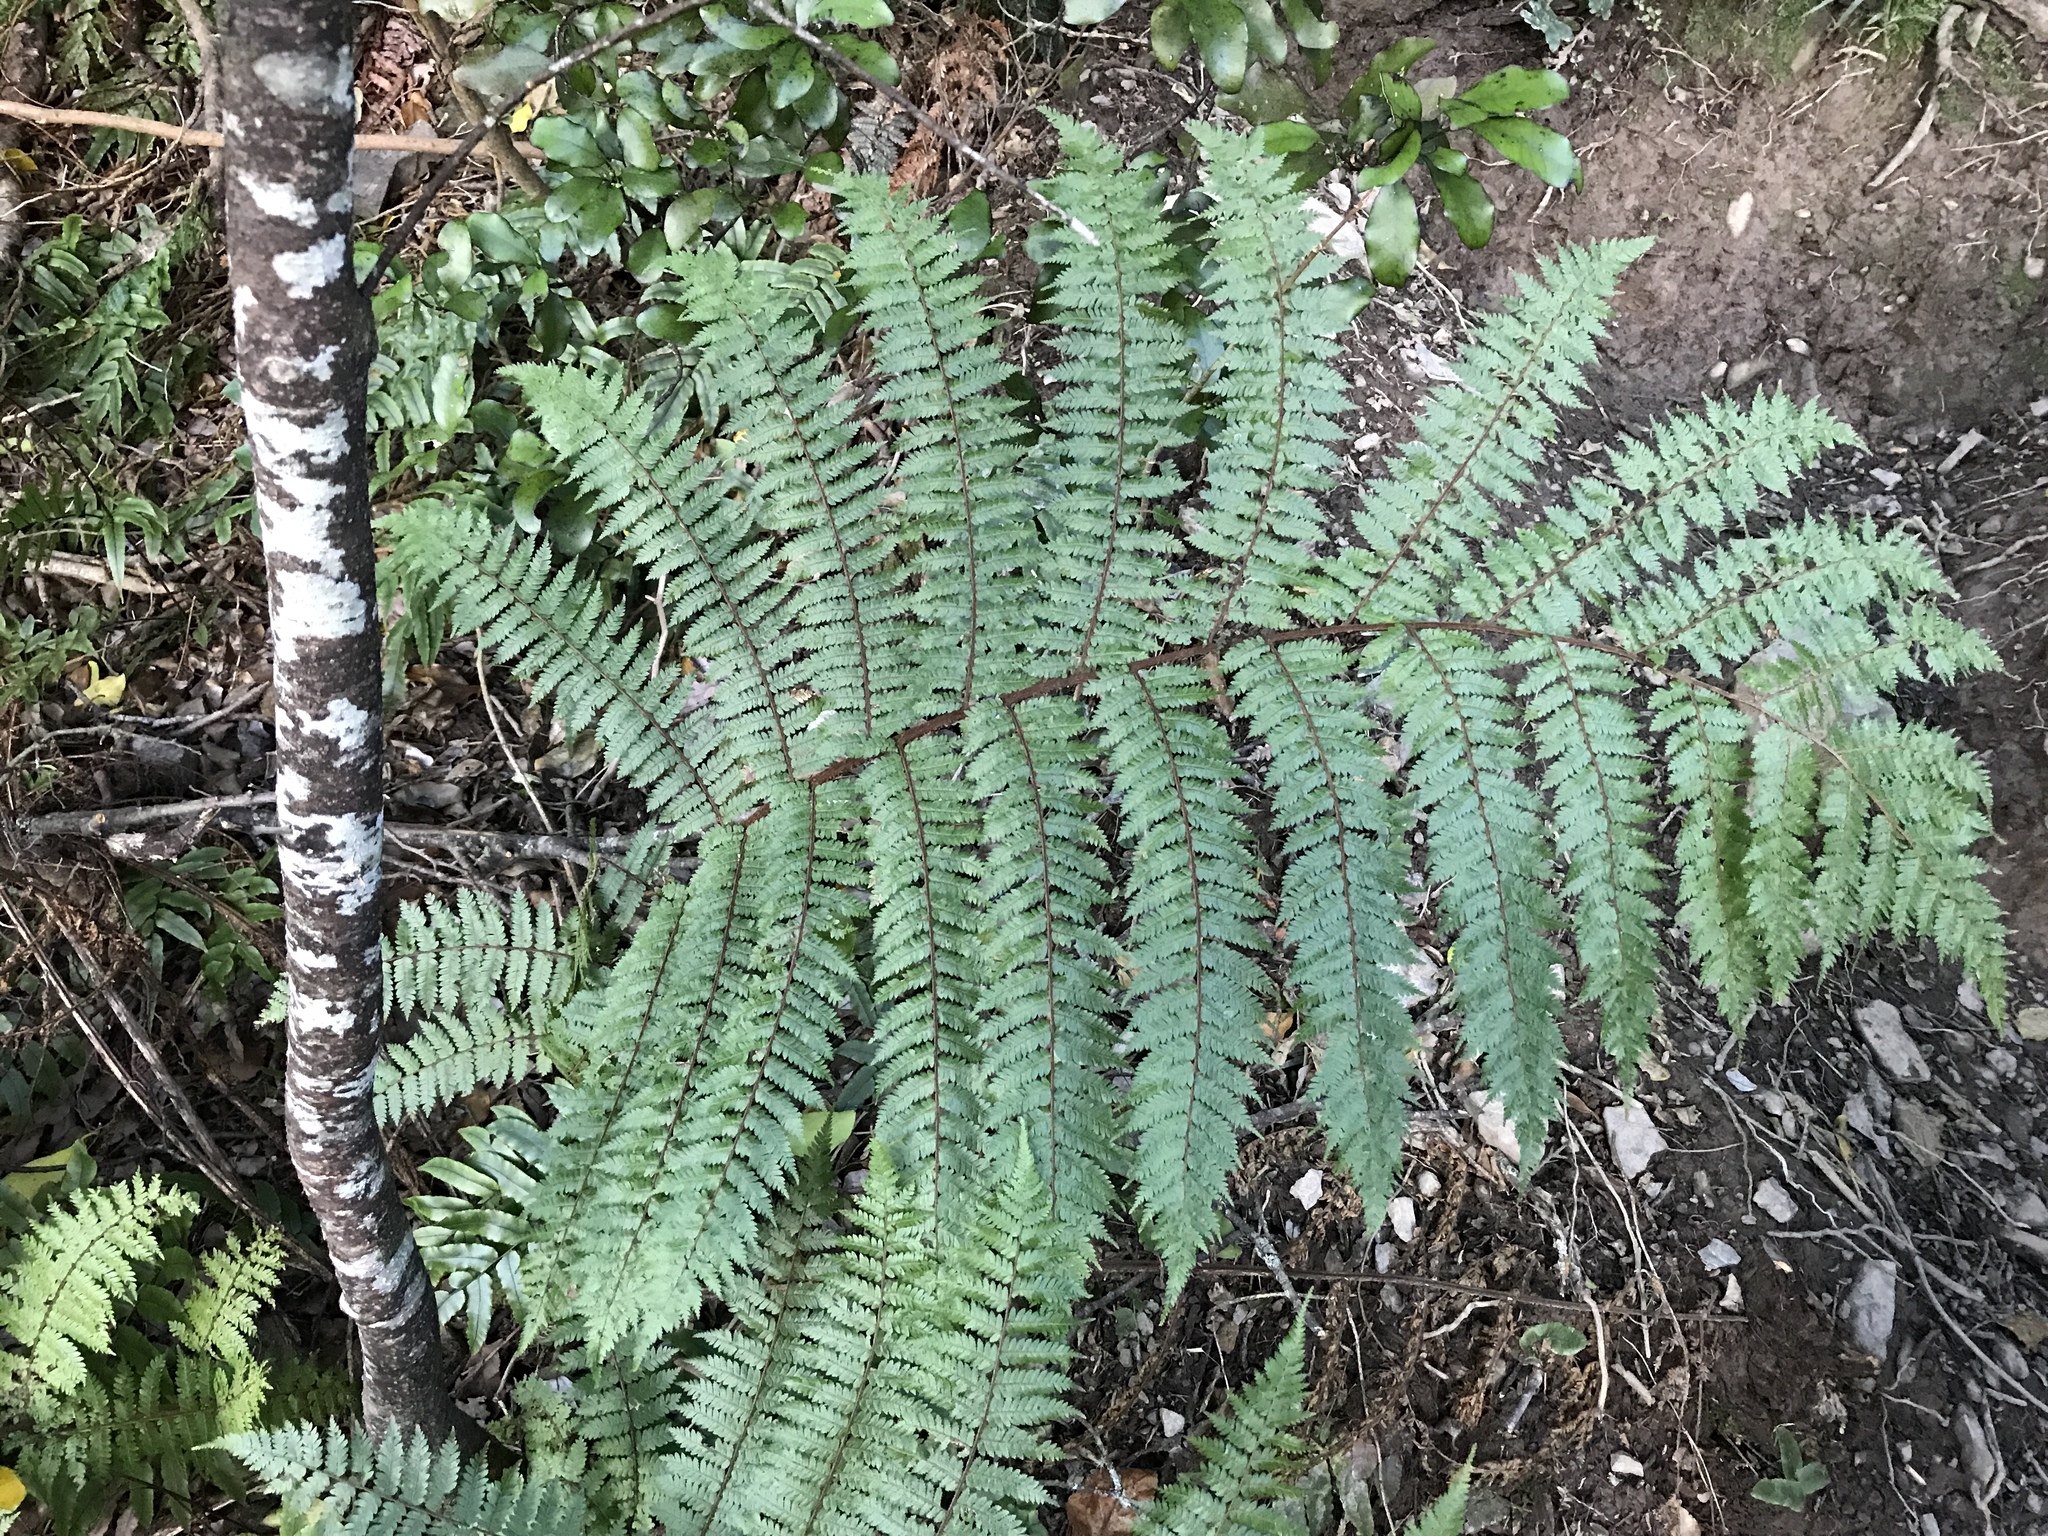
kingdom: Plantae
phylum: Tracheophyta
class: Polypodiopsida
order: Cyatheales
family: Cyatheaceae
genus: Alsophila
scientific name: Alsophila smithii
